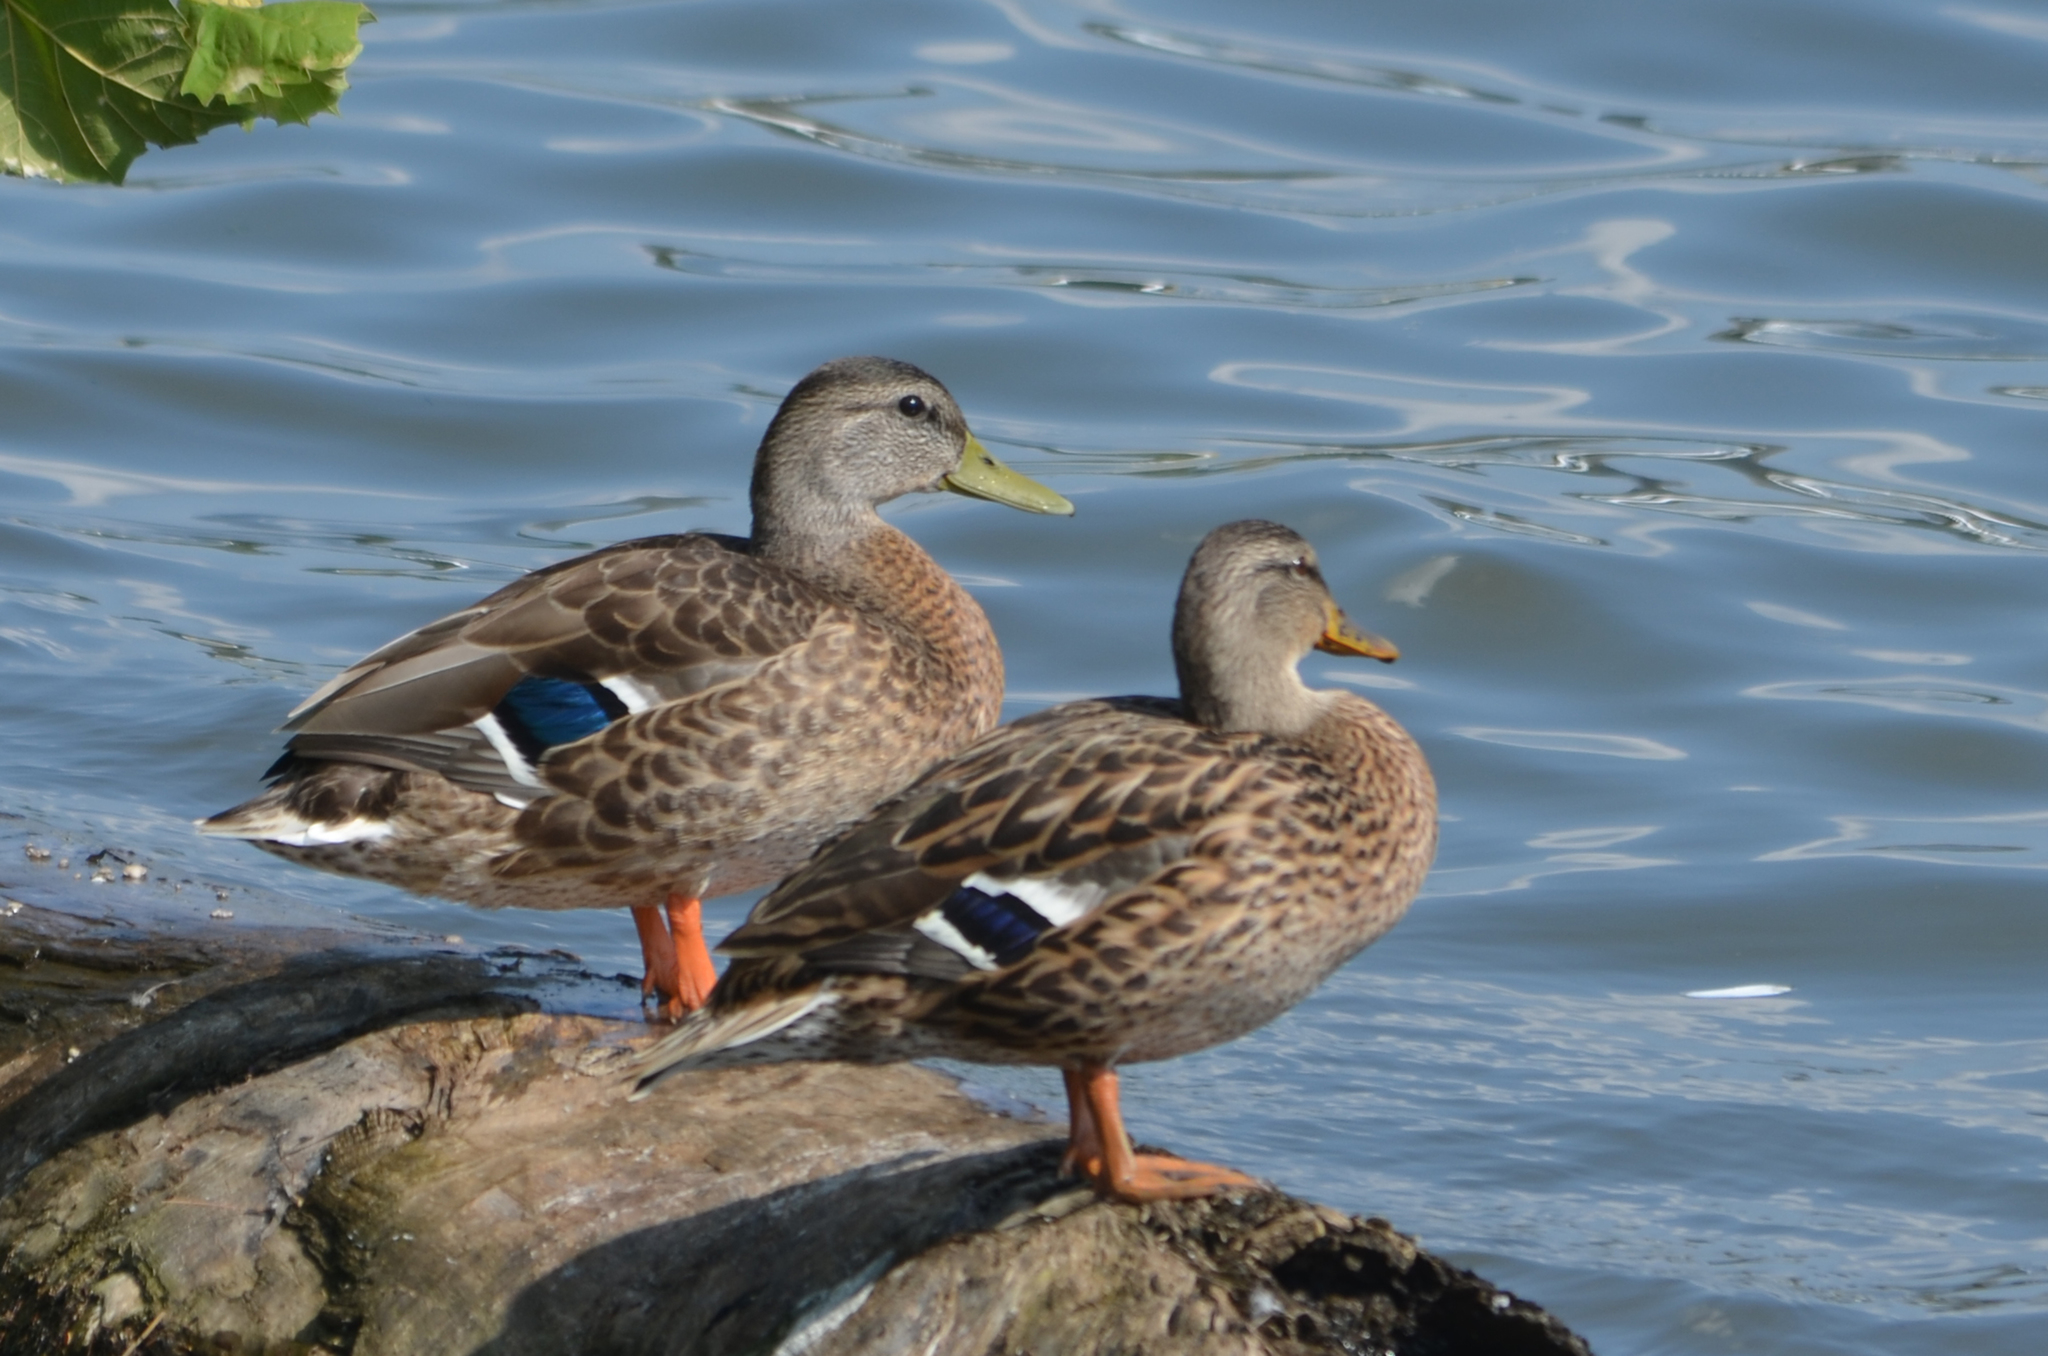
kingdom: Animalia
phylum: Chordata
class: Aves
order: Anseriformes
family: Anatidae
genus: Anas
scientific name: Anas platyrhynchos
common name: Mallard
